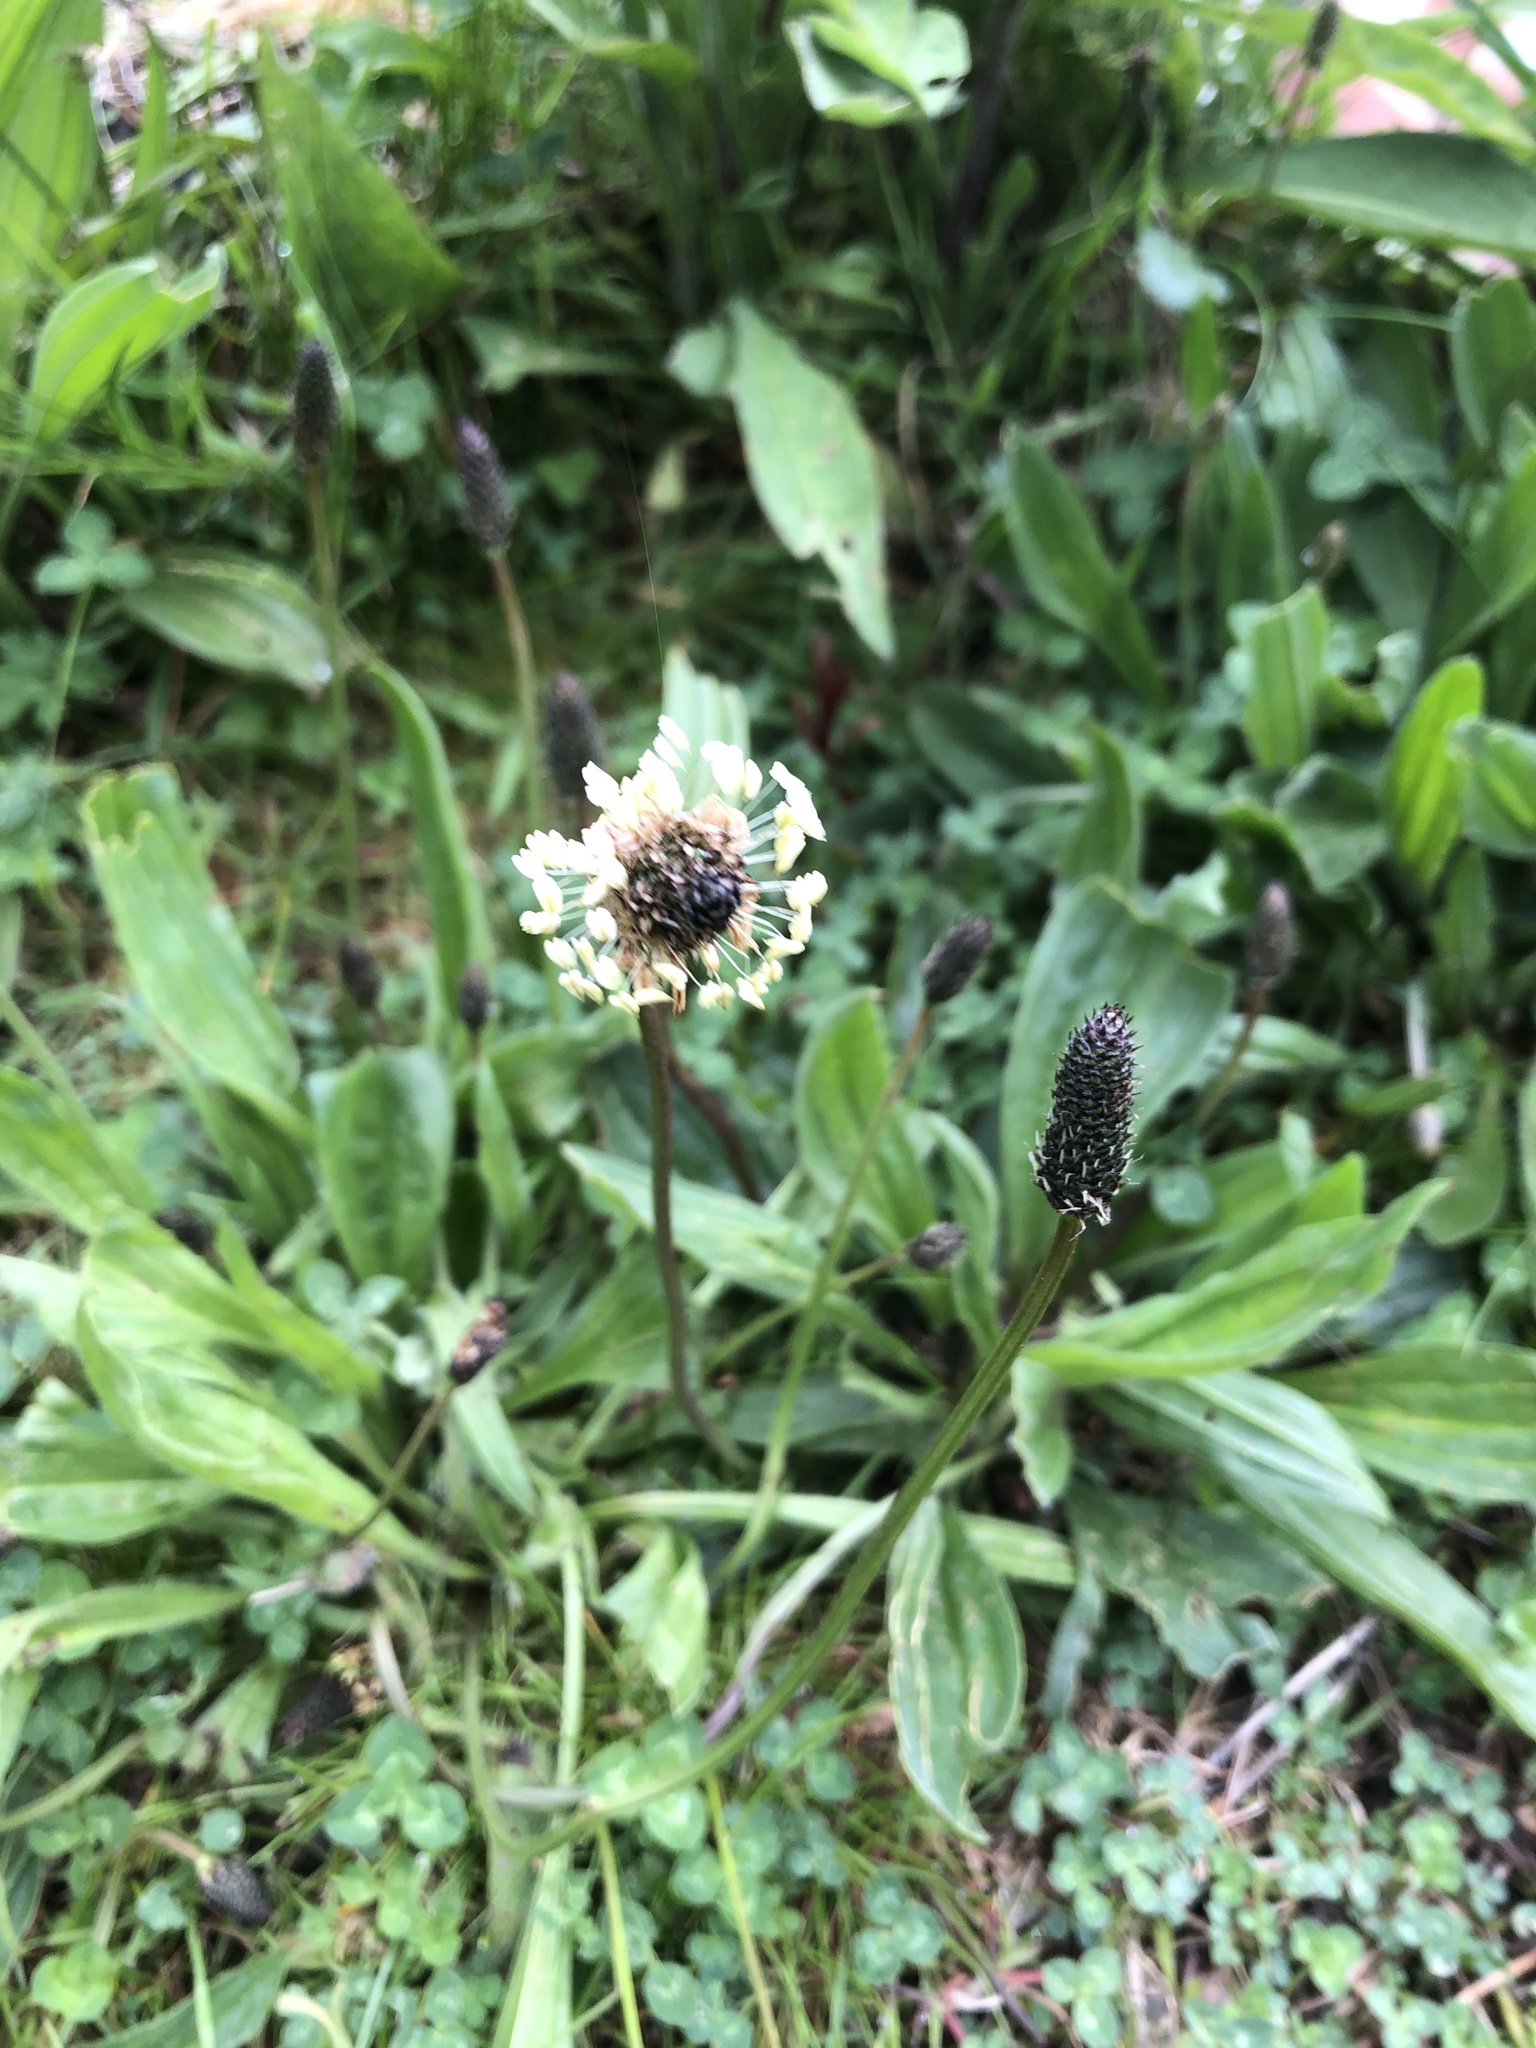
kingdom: Plantae
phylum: Tracheophyta
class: Magnoliopsida
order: Lamiales
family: Plantaginaceae
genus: Plantago
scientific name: Plantago lanceolata
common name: Ribwort plantain
